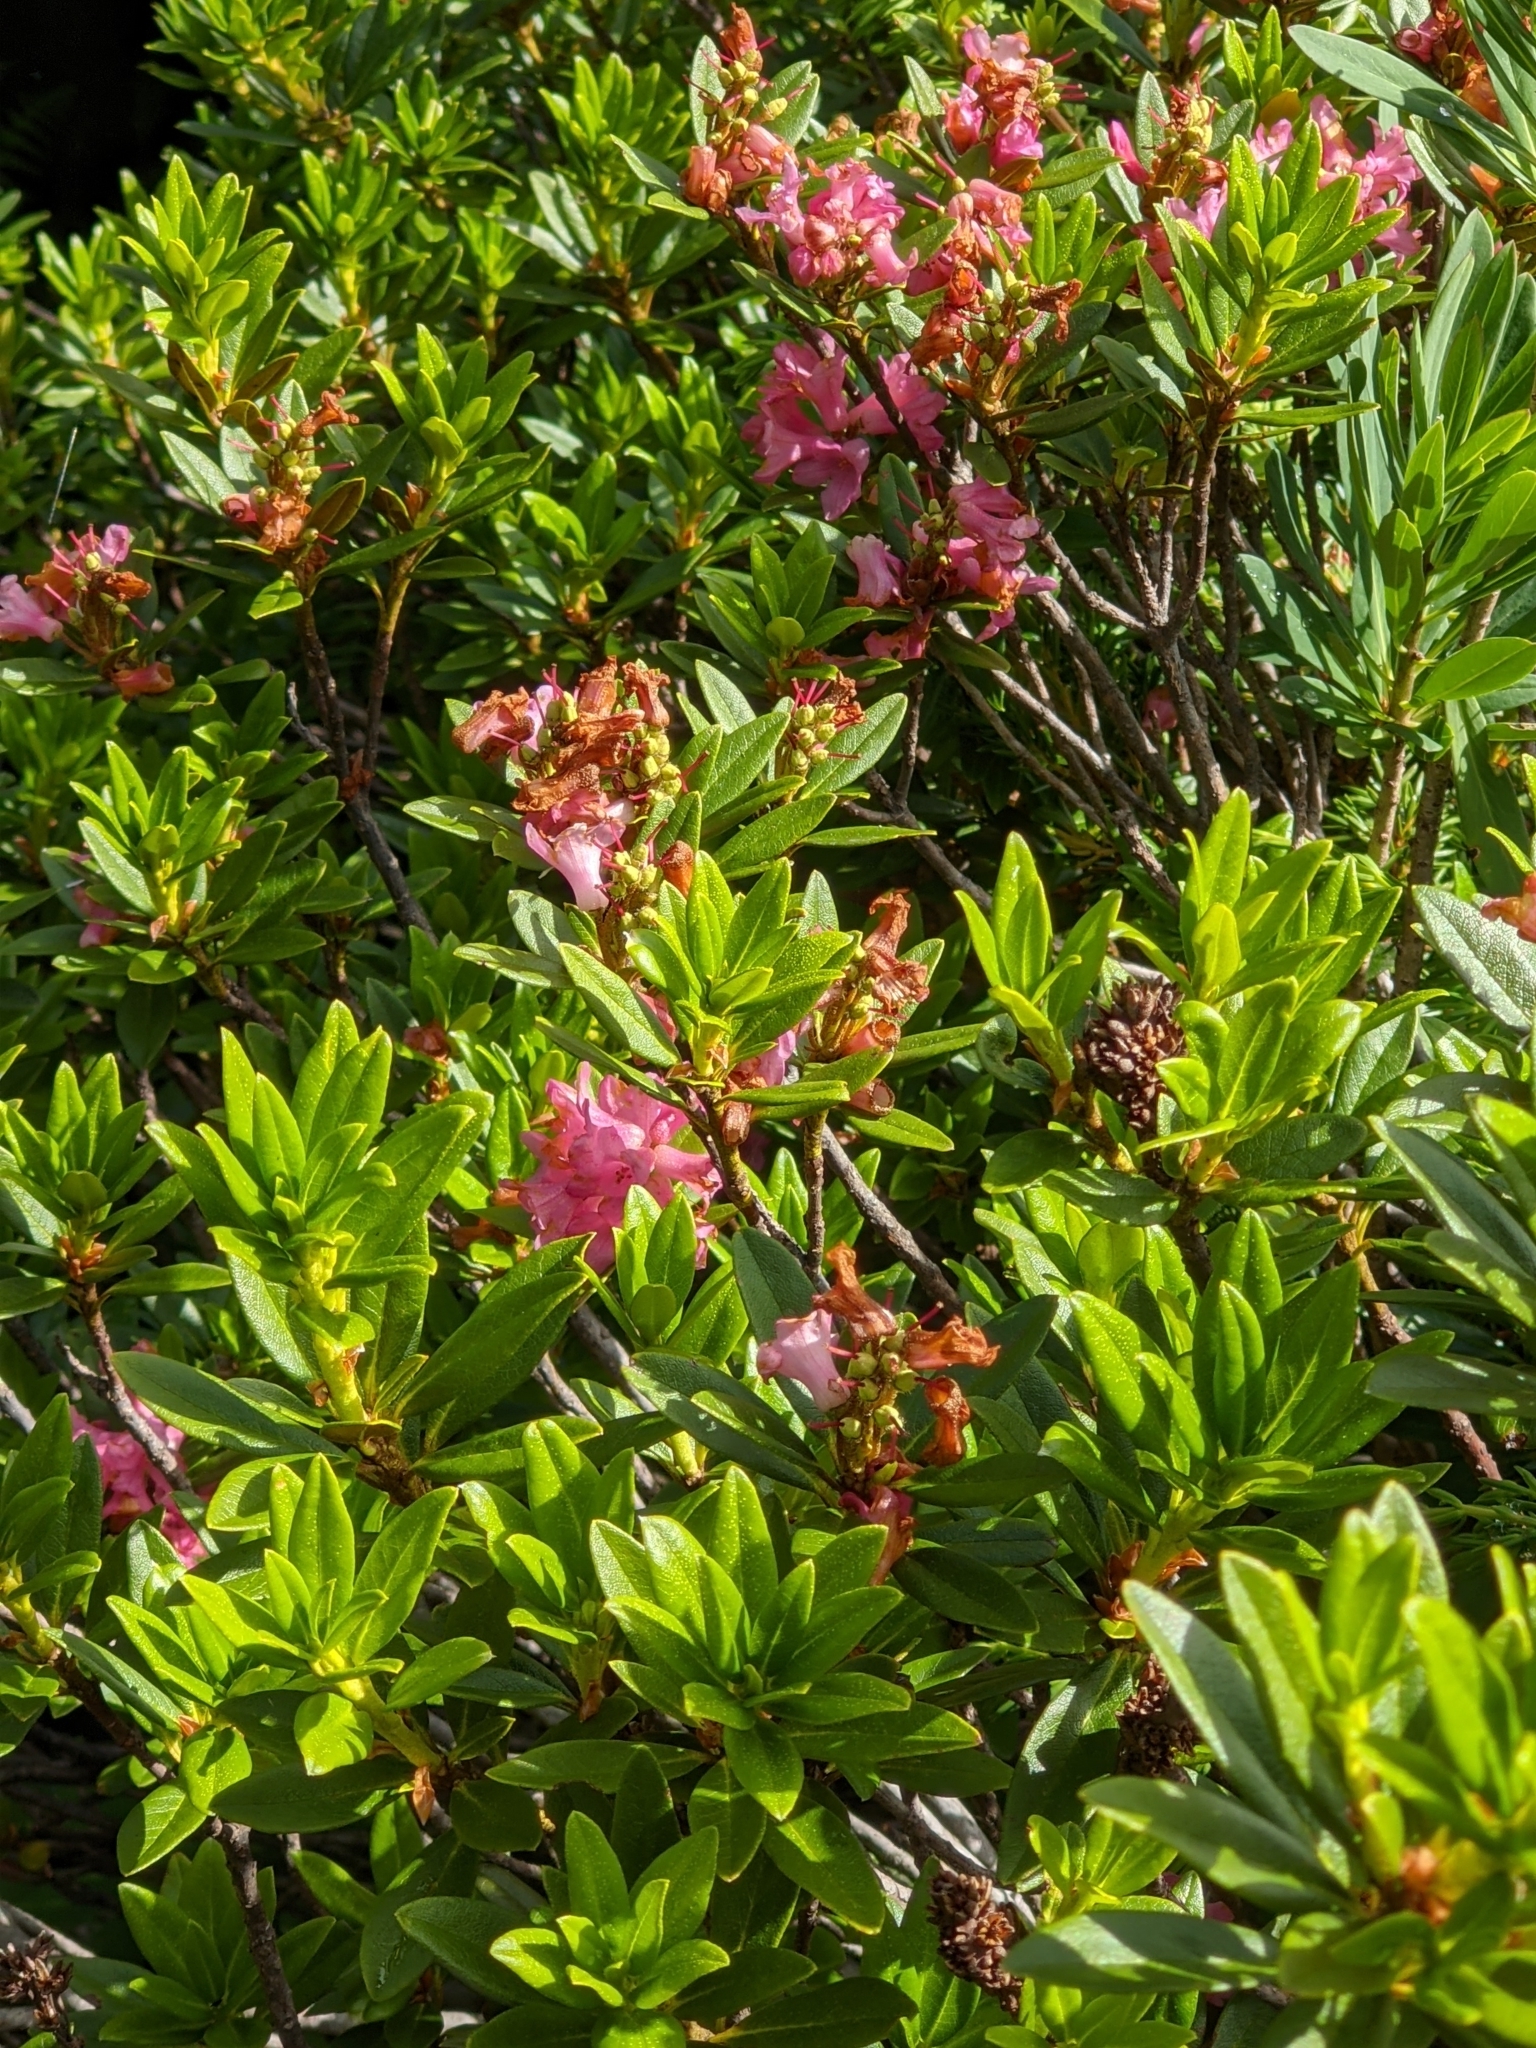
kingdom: Plantae
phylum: Tracheophyta
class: Magnoliopsida
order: Ericales
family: Ericaceae
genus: Rhododendron
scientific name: Rhododendron ferrugineum
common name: Alpenrose
